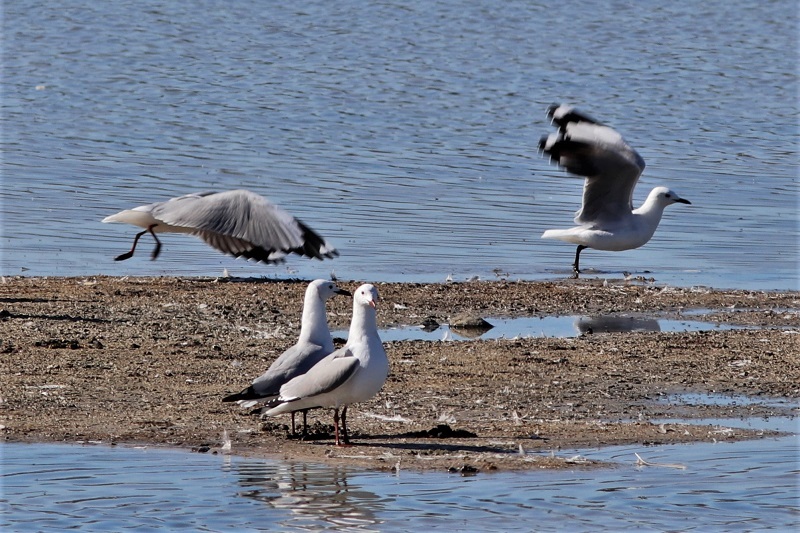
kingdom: Animalia
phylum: Chordata
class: Aves
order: Charadriiformes
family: Laridae
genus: Chroicocephalus
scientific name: Chroicocephalus hartlaubii
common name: Hartlaub's gull
